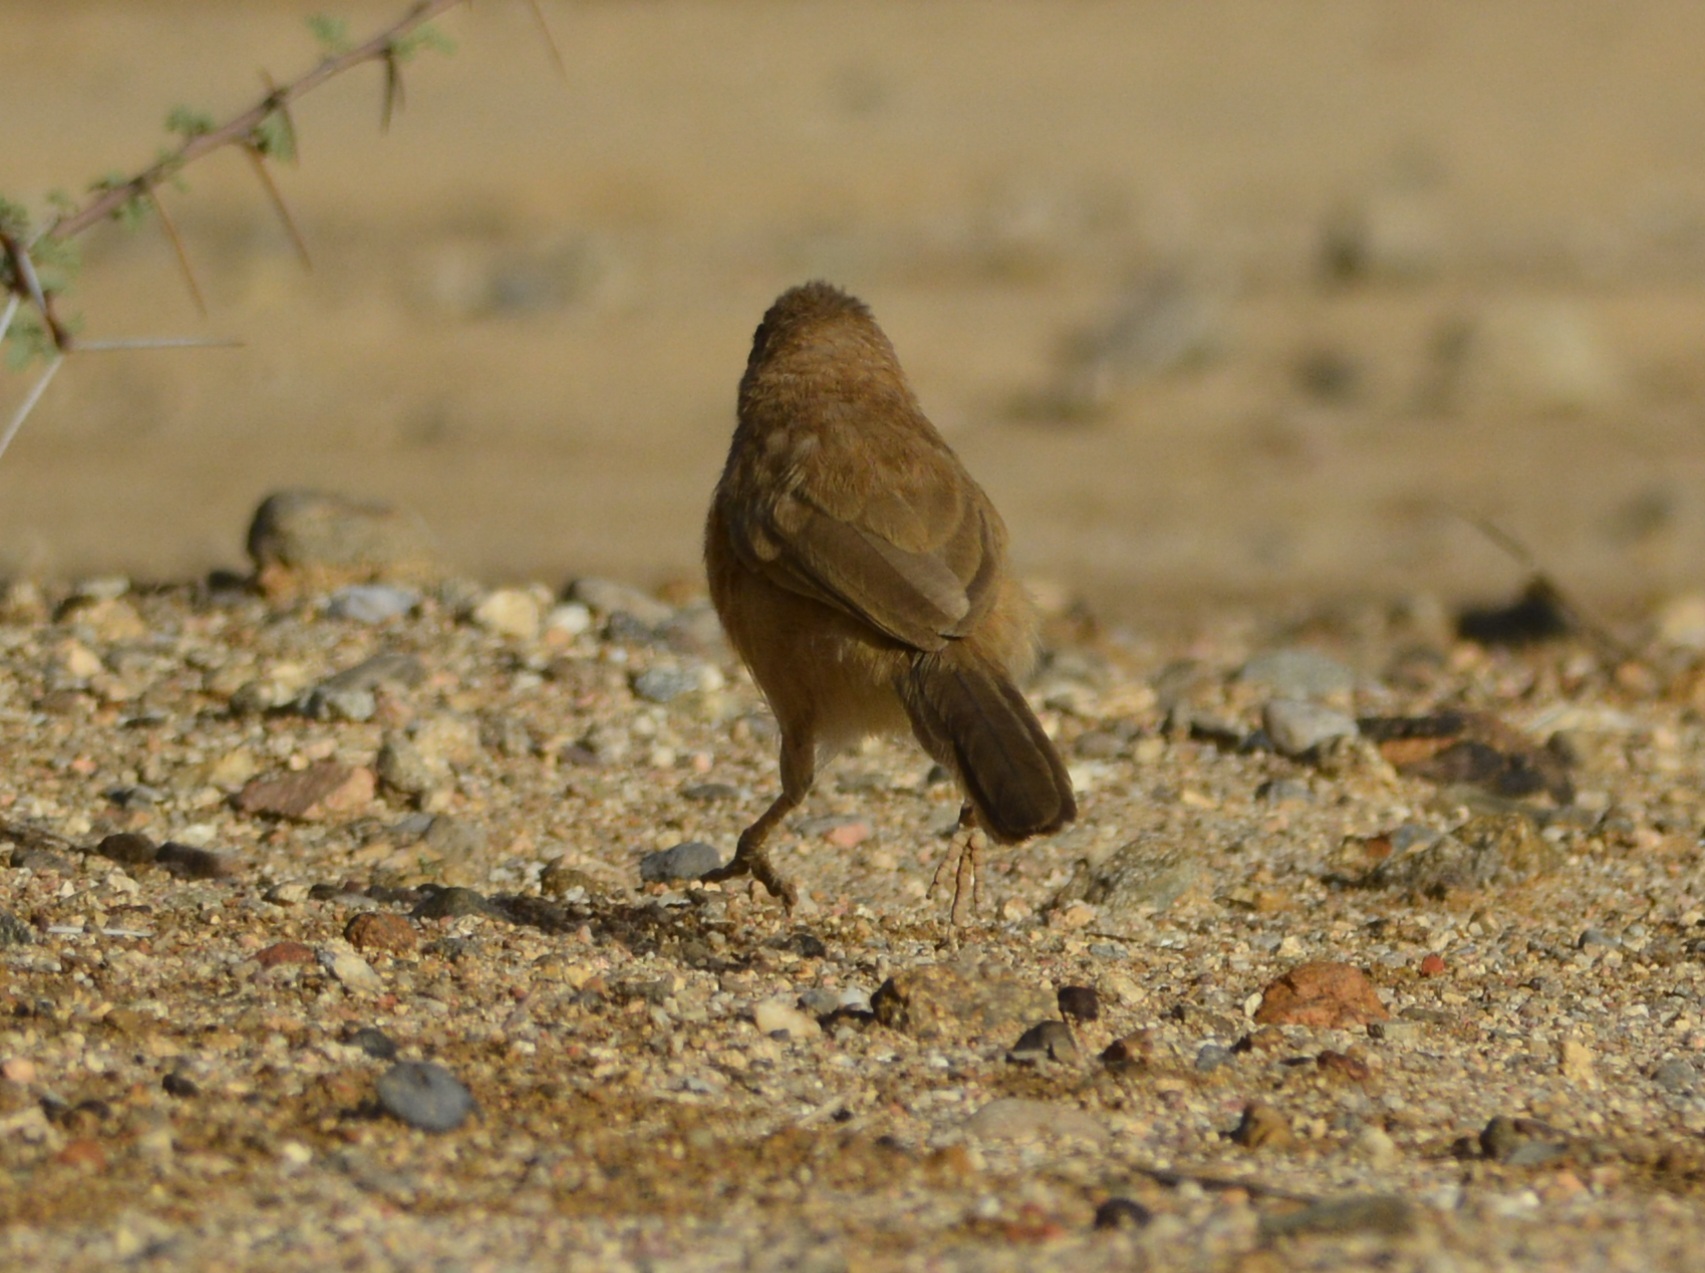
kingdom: Animalia
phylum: Chordata
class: Aves
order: Passeriformes
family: Leiothrichidae
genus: Turdoides
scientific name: Turdoides fulva
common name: Fulvous babbler
